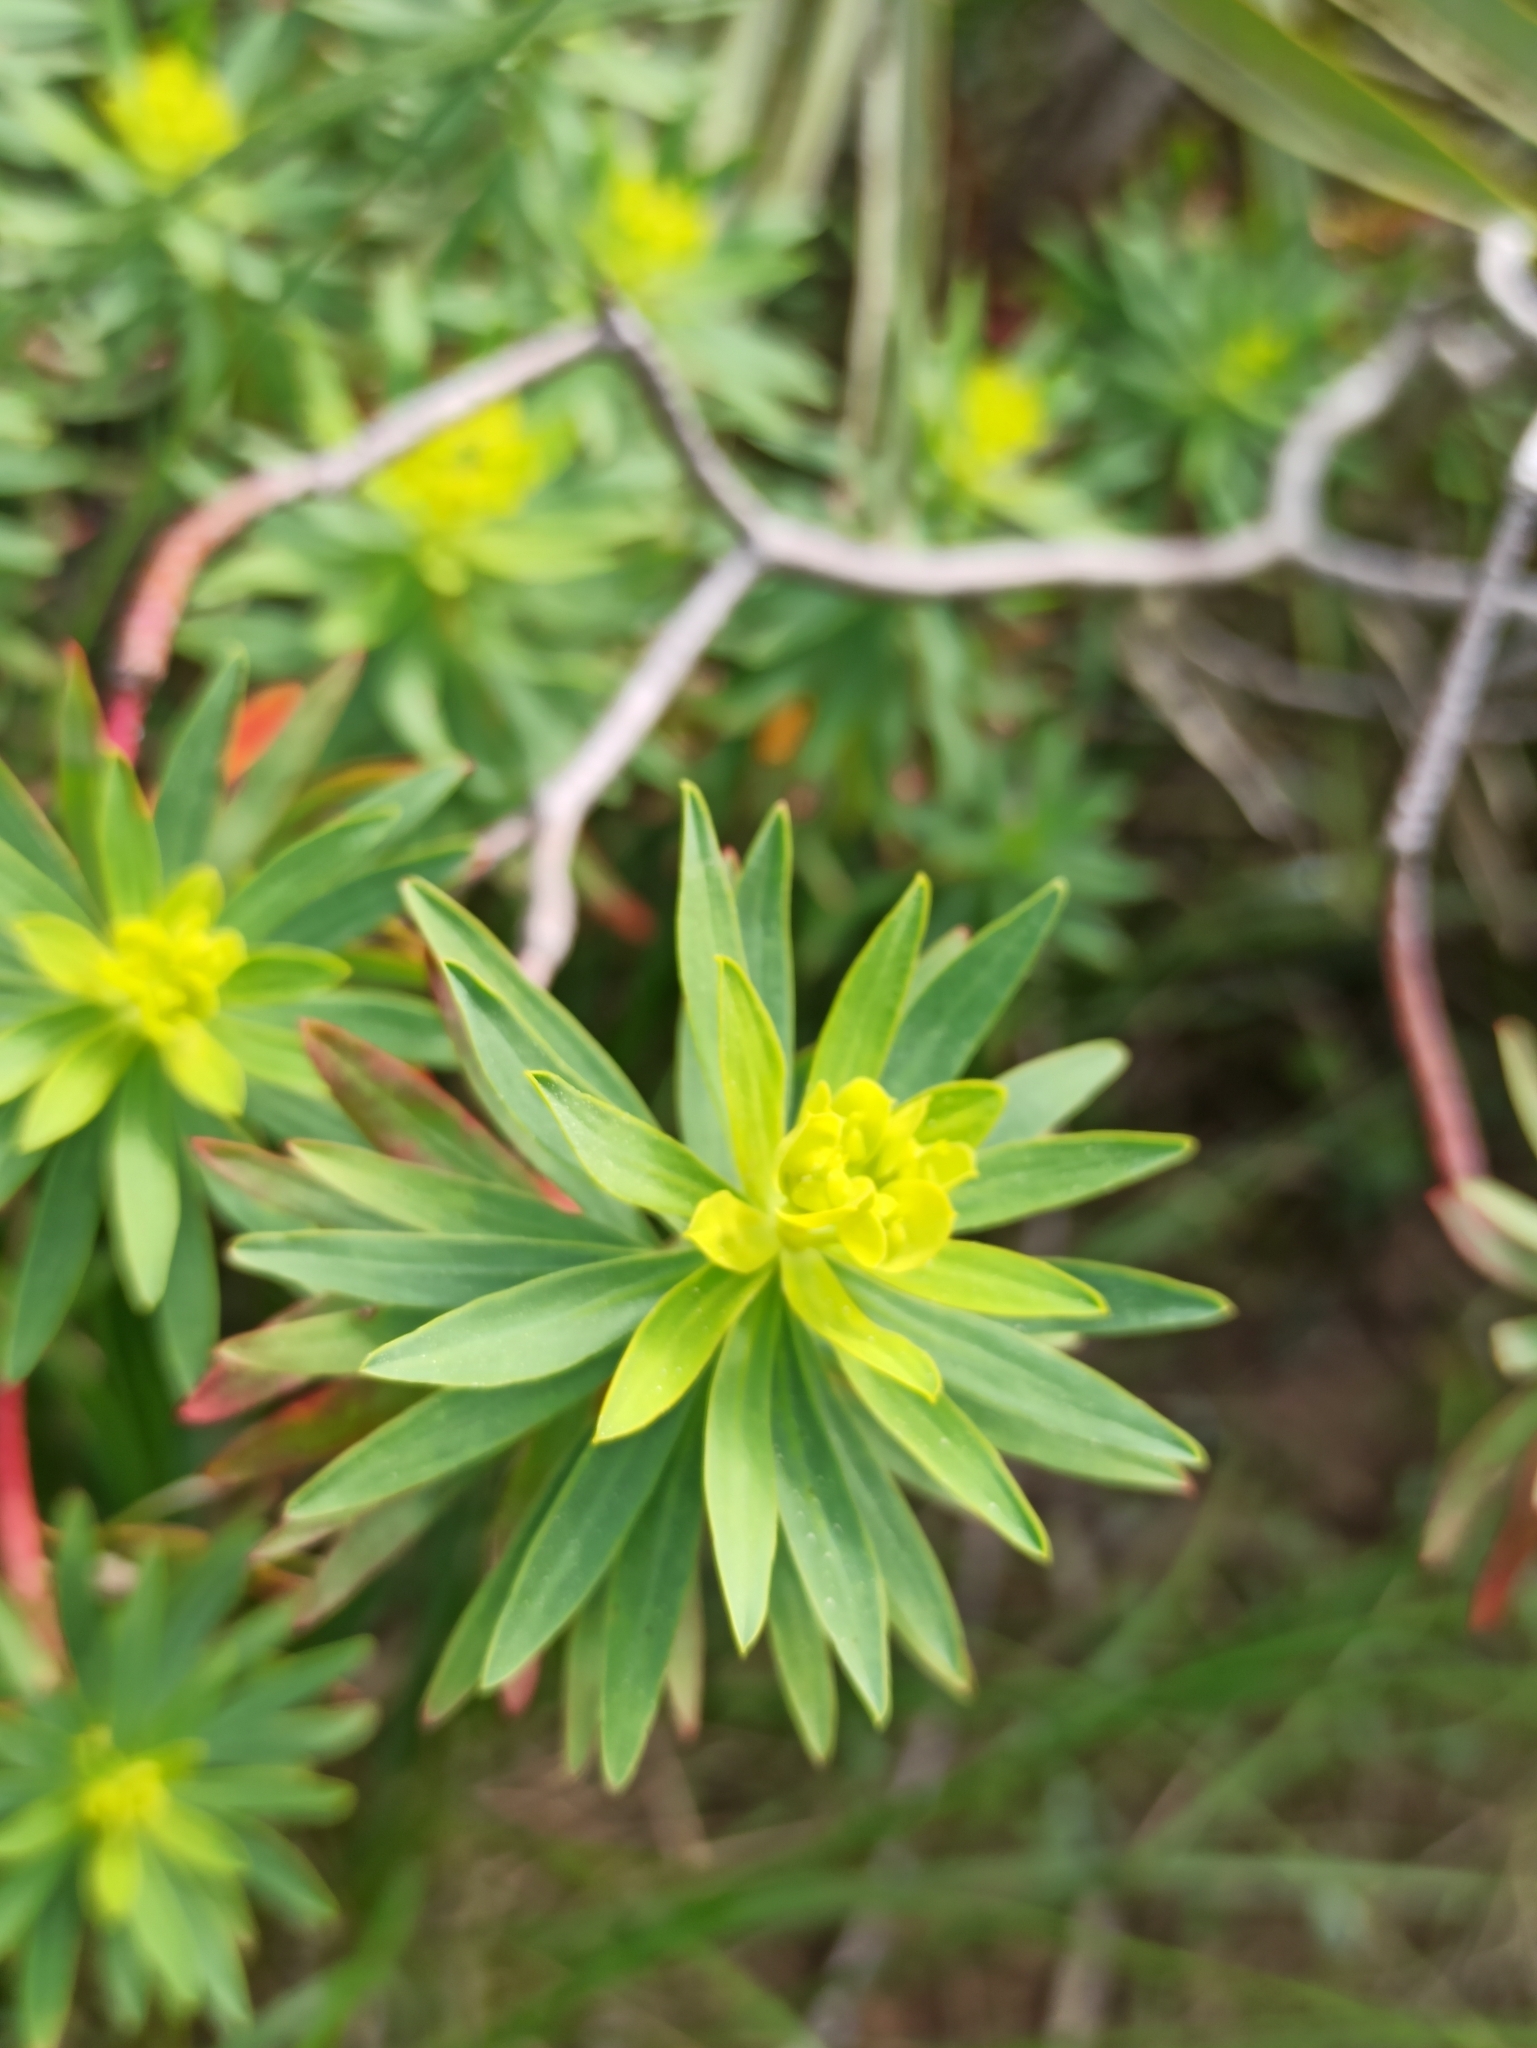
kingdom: Plantae
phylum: Tracheophyta
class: Magnoliopsida
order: Malpighiales
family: Euphorbiaceae
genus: Euphorbia
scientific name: Euphorbia dendroides
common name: Tree spurge
